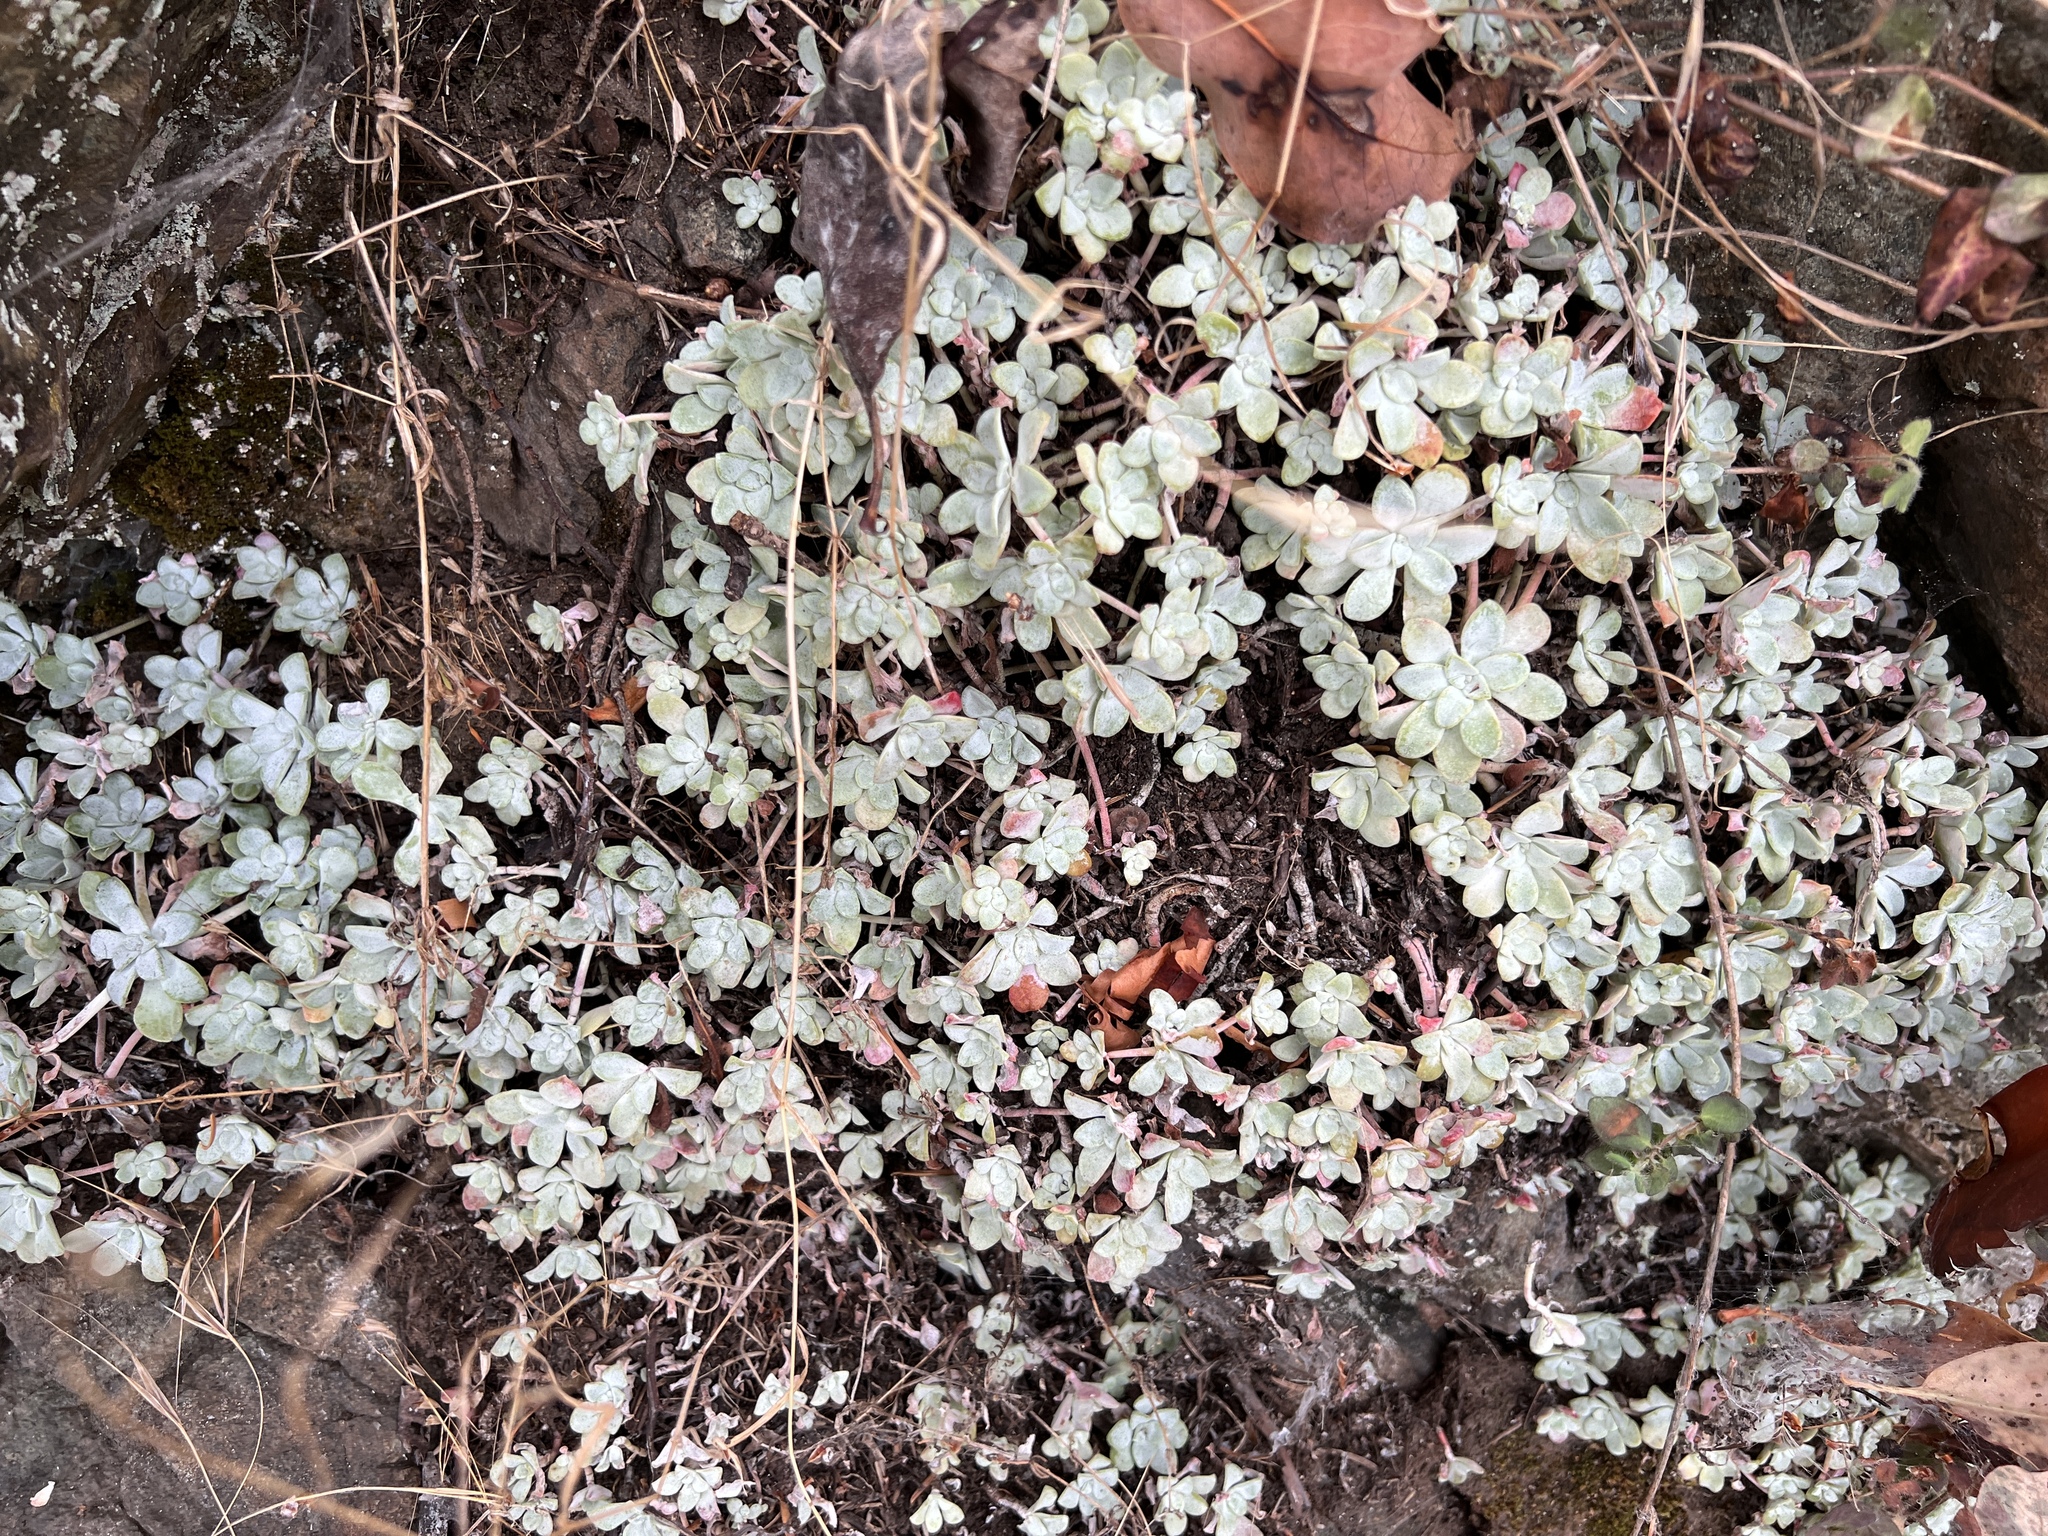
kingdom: Plantae
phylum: Tracheophyta
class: Magnoliopsida
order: Saxifragales
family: Crassulaceae
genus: Sedum
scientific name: Sedum spathulifolium
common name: Colorado stonecrop
